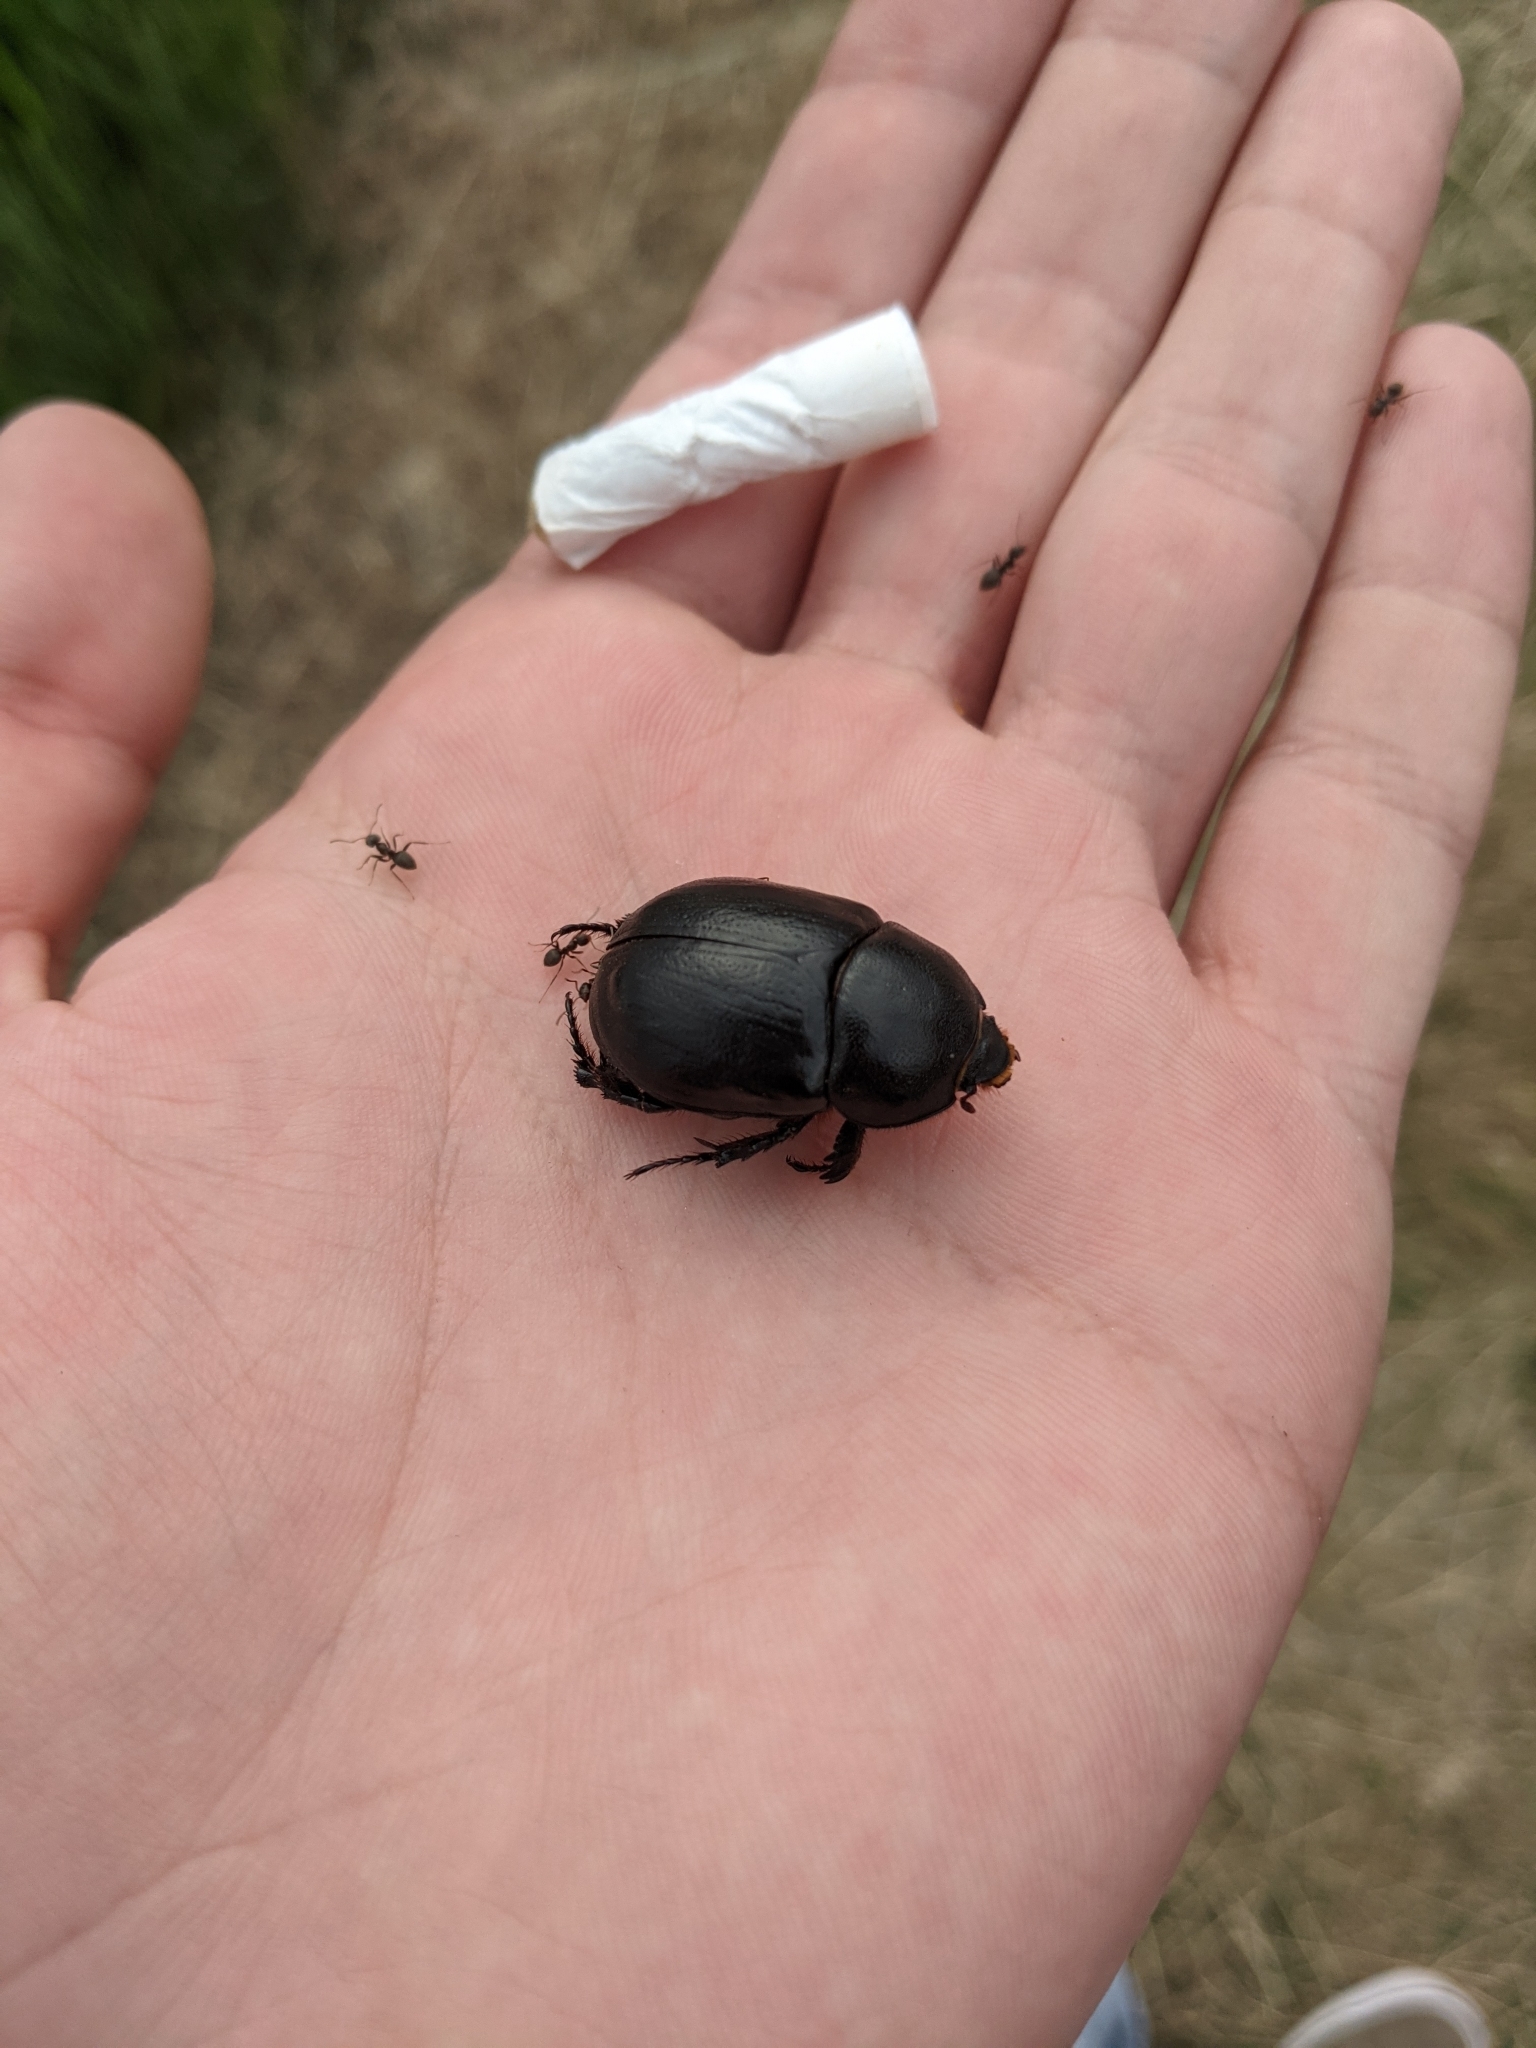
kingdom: Animalia
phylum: Arthropoda
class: Insecta
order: Coleoptera
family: Scarabaeidae
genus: Pentodon
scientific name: Pentodon idiota
